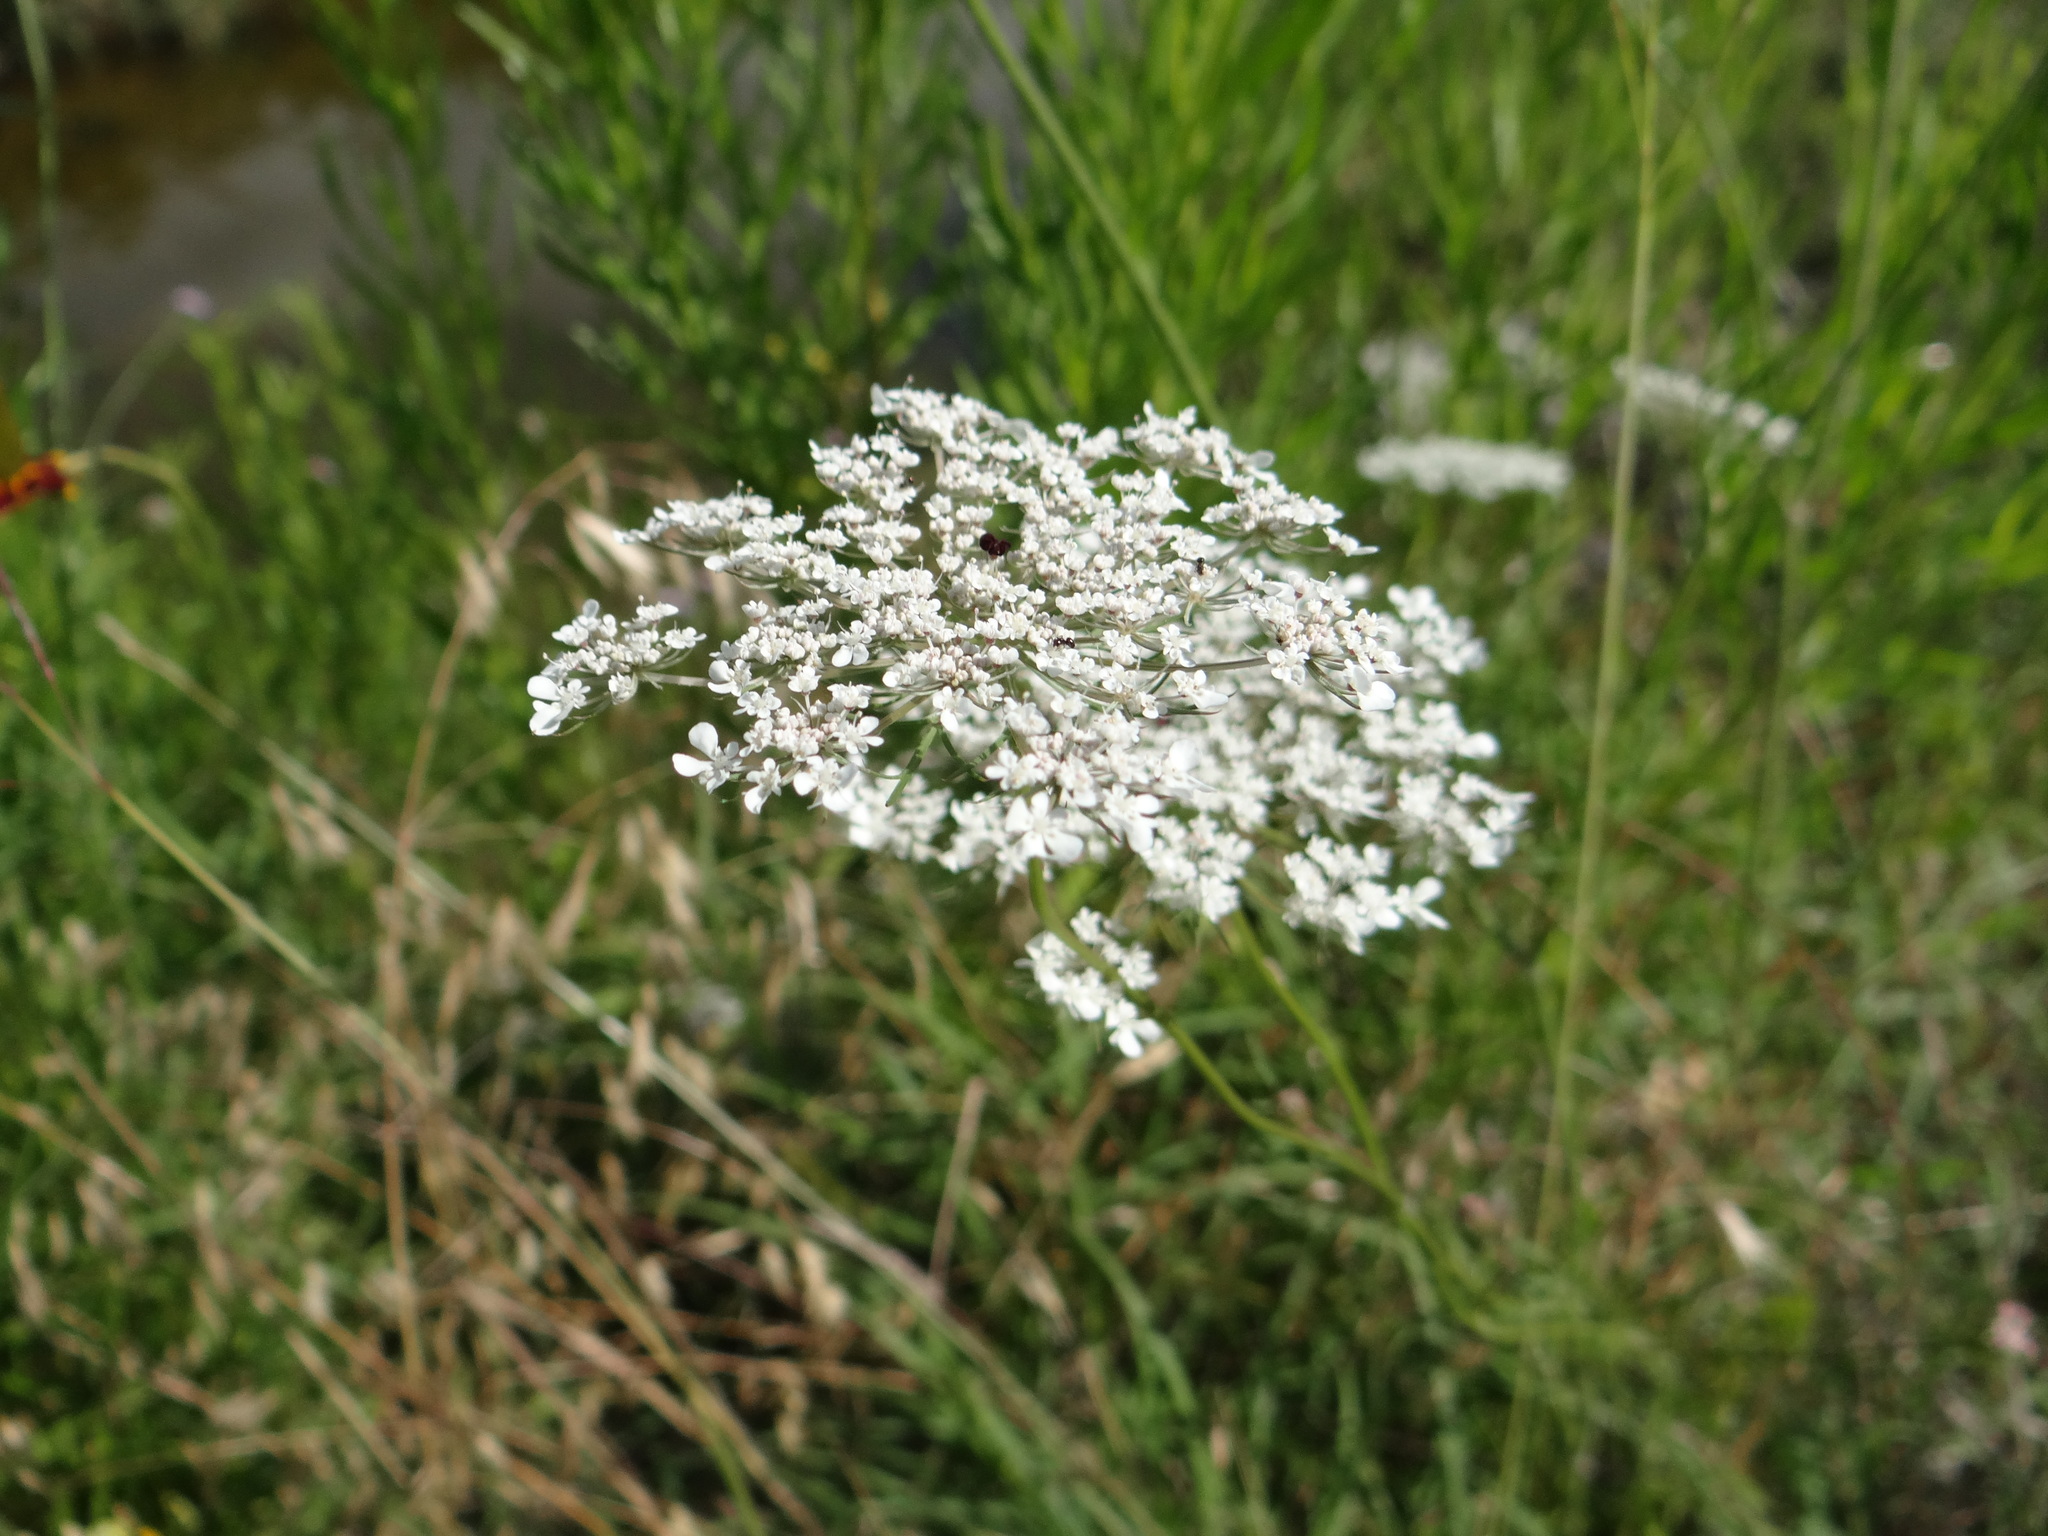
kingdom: Plantae
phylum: Tracheophyta
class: Magnoliopsida
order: Apiales
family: Apiaceae
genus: Daucus
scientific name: Daucus carota
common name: Wild carrot
